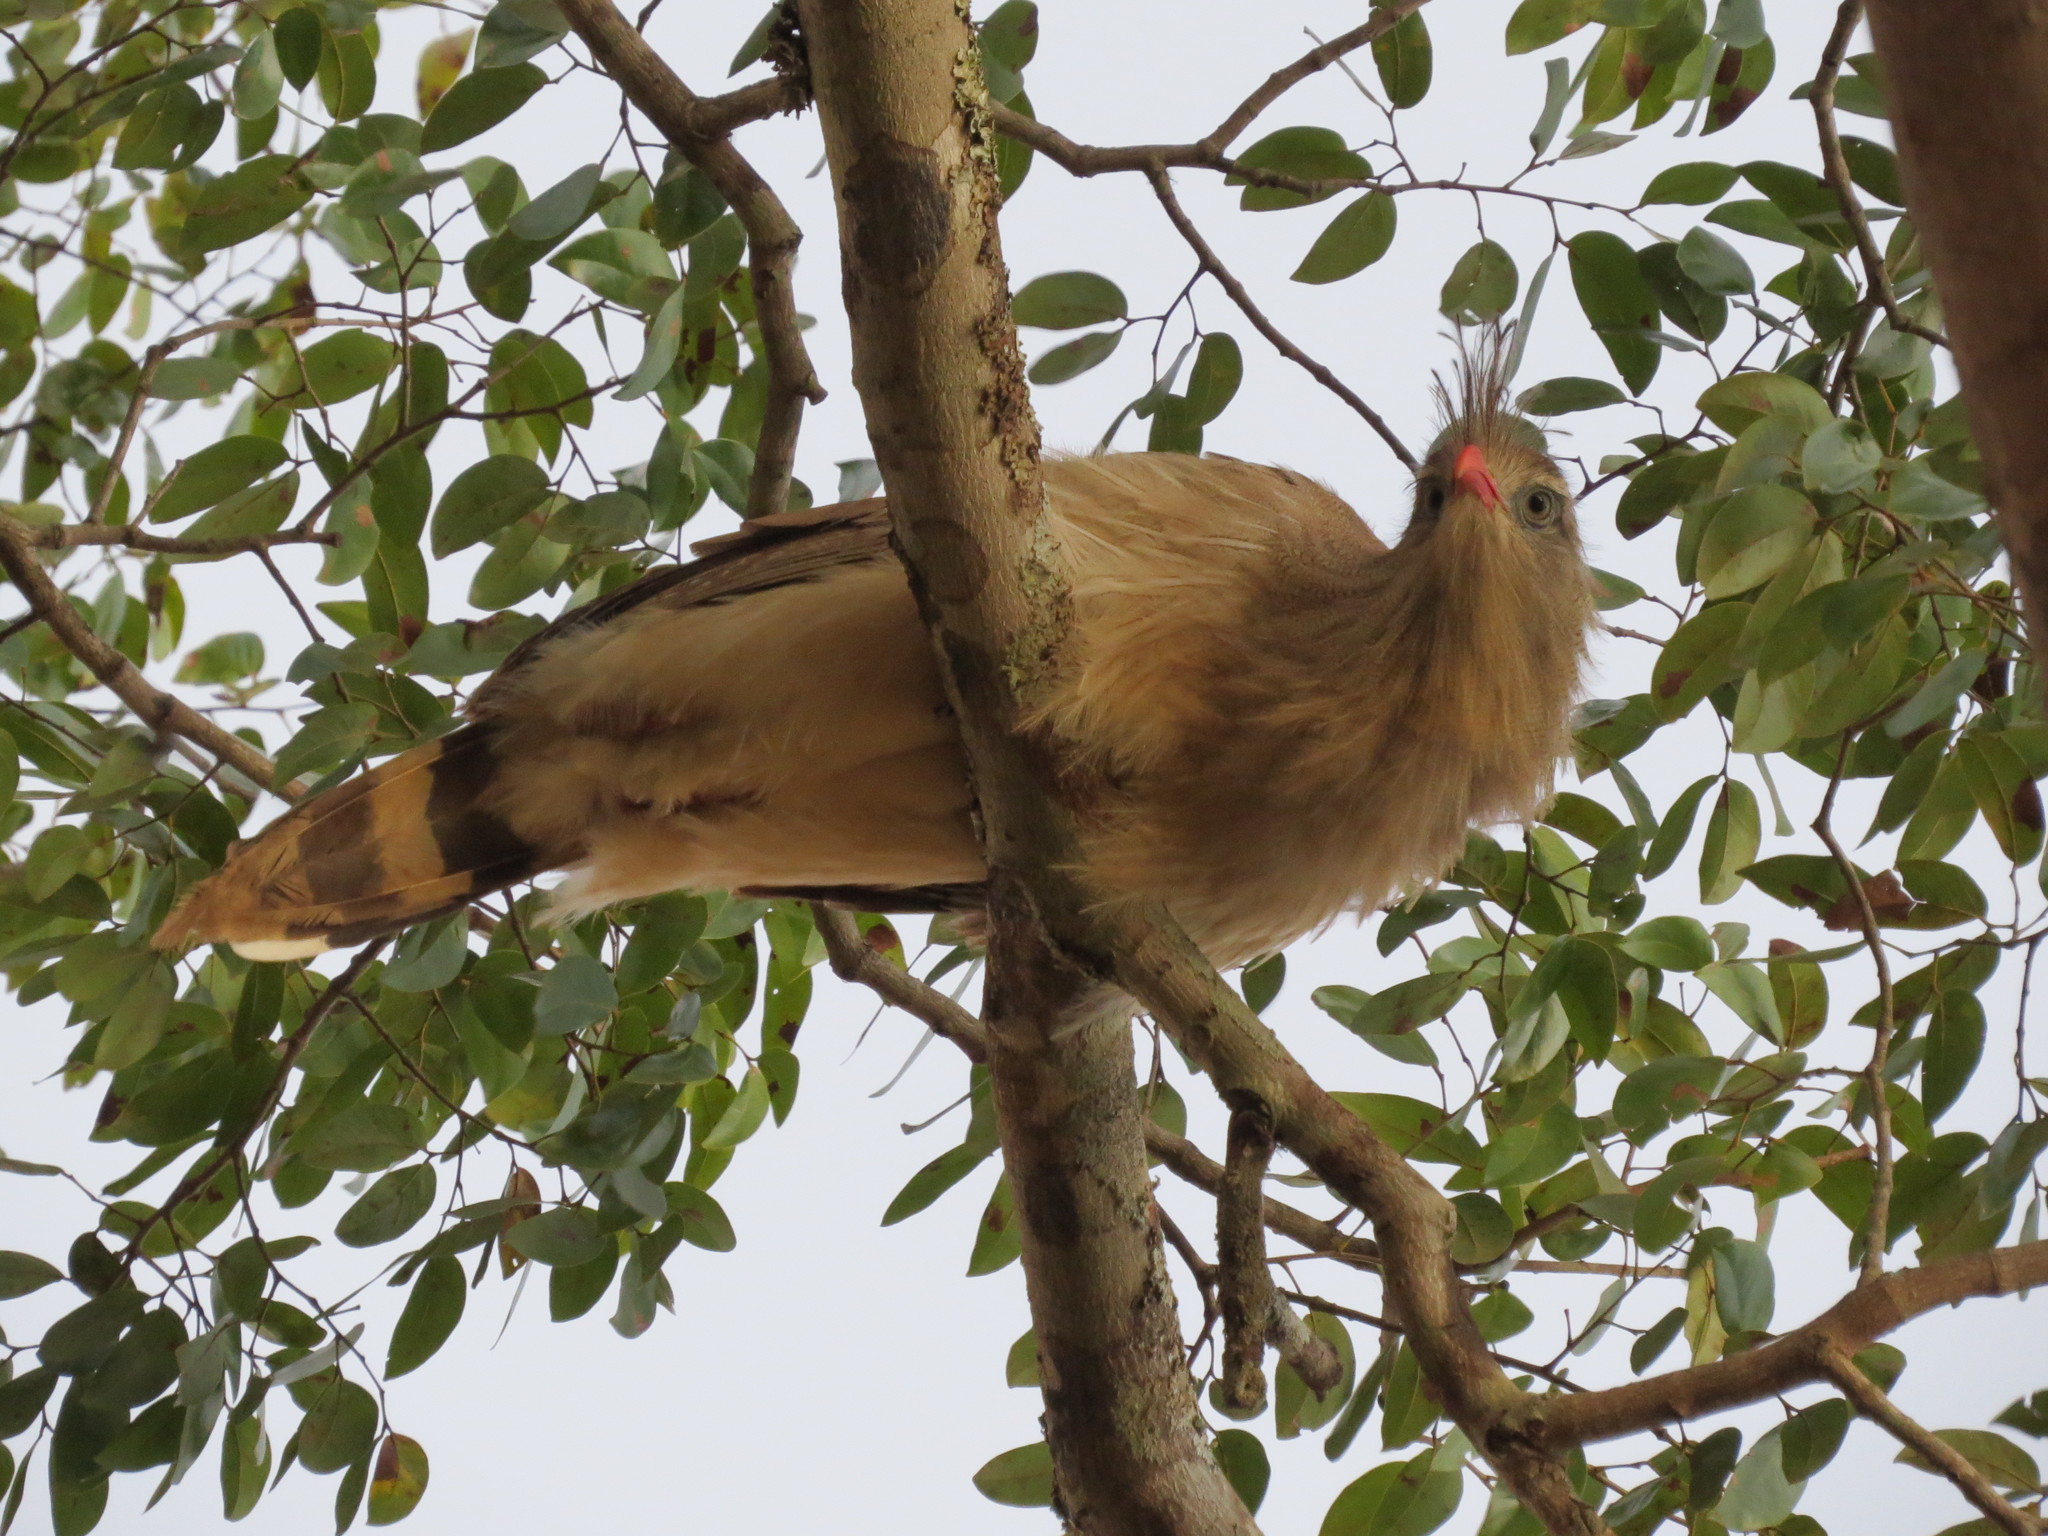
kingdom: Animalia
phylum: Chordata
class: Aves
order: Cariamiformes
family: Cariamidae
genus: Cariama
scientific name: Cariama cristata
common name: Red-legged seriema
